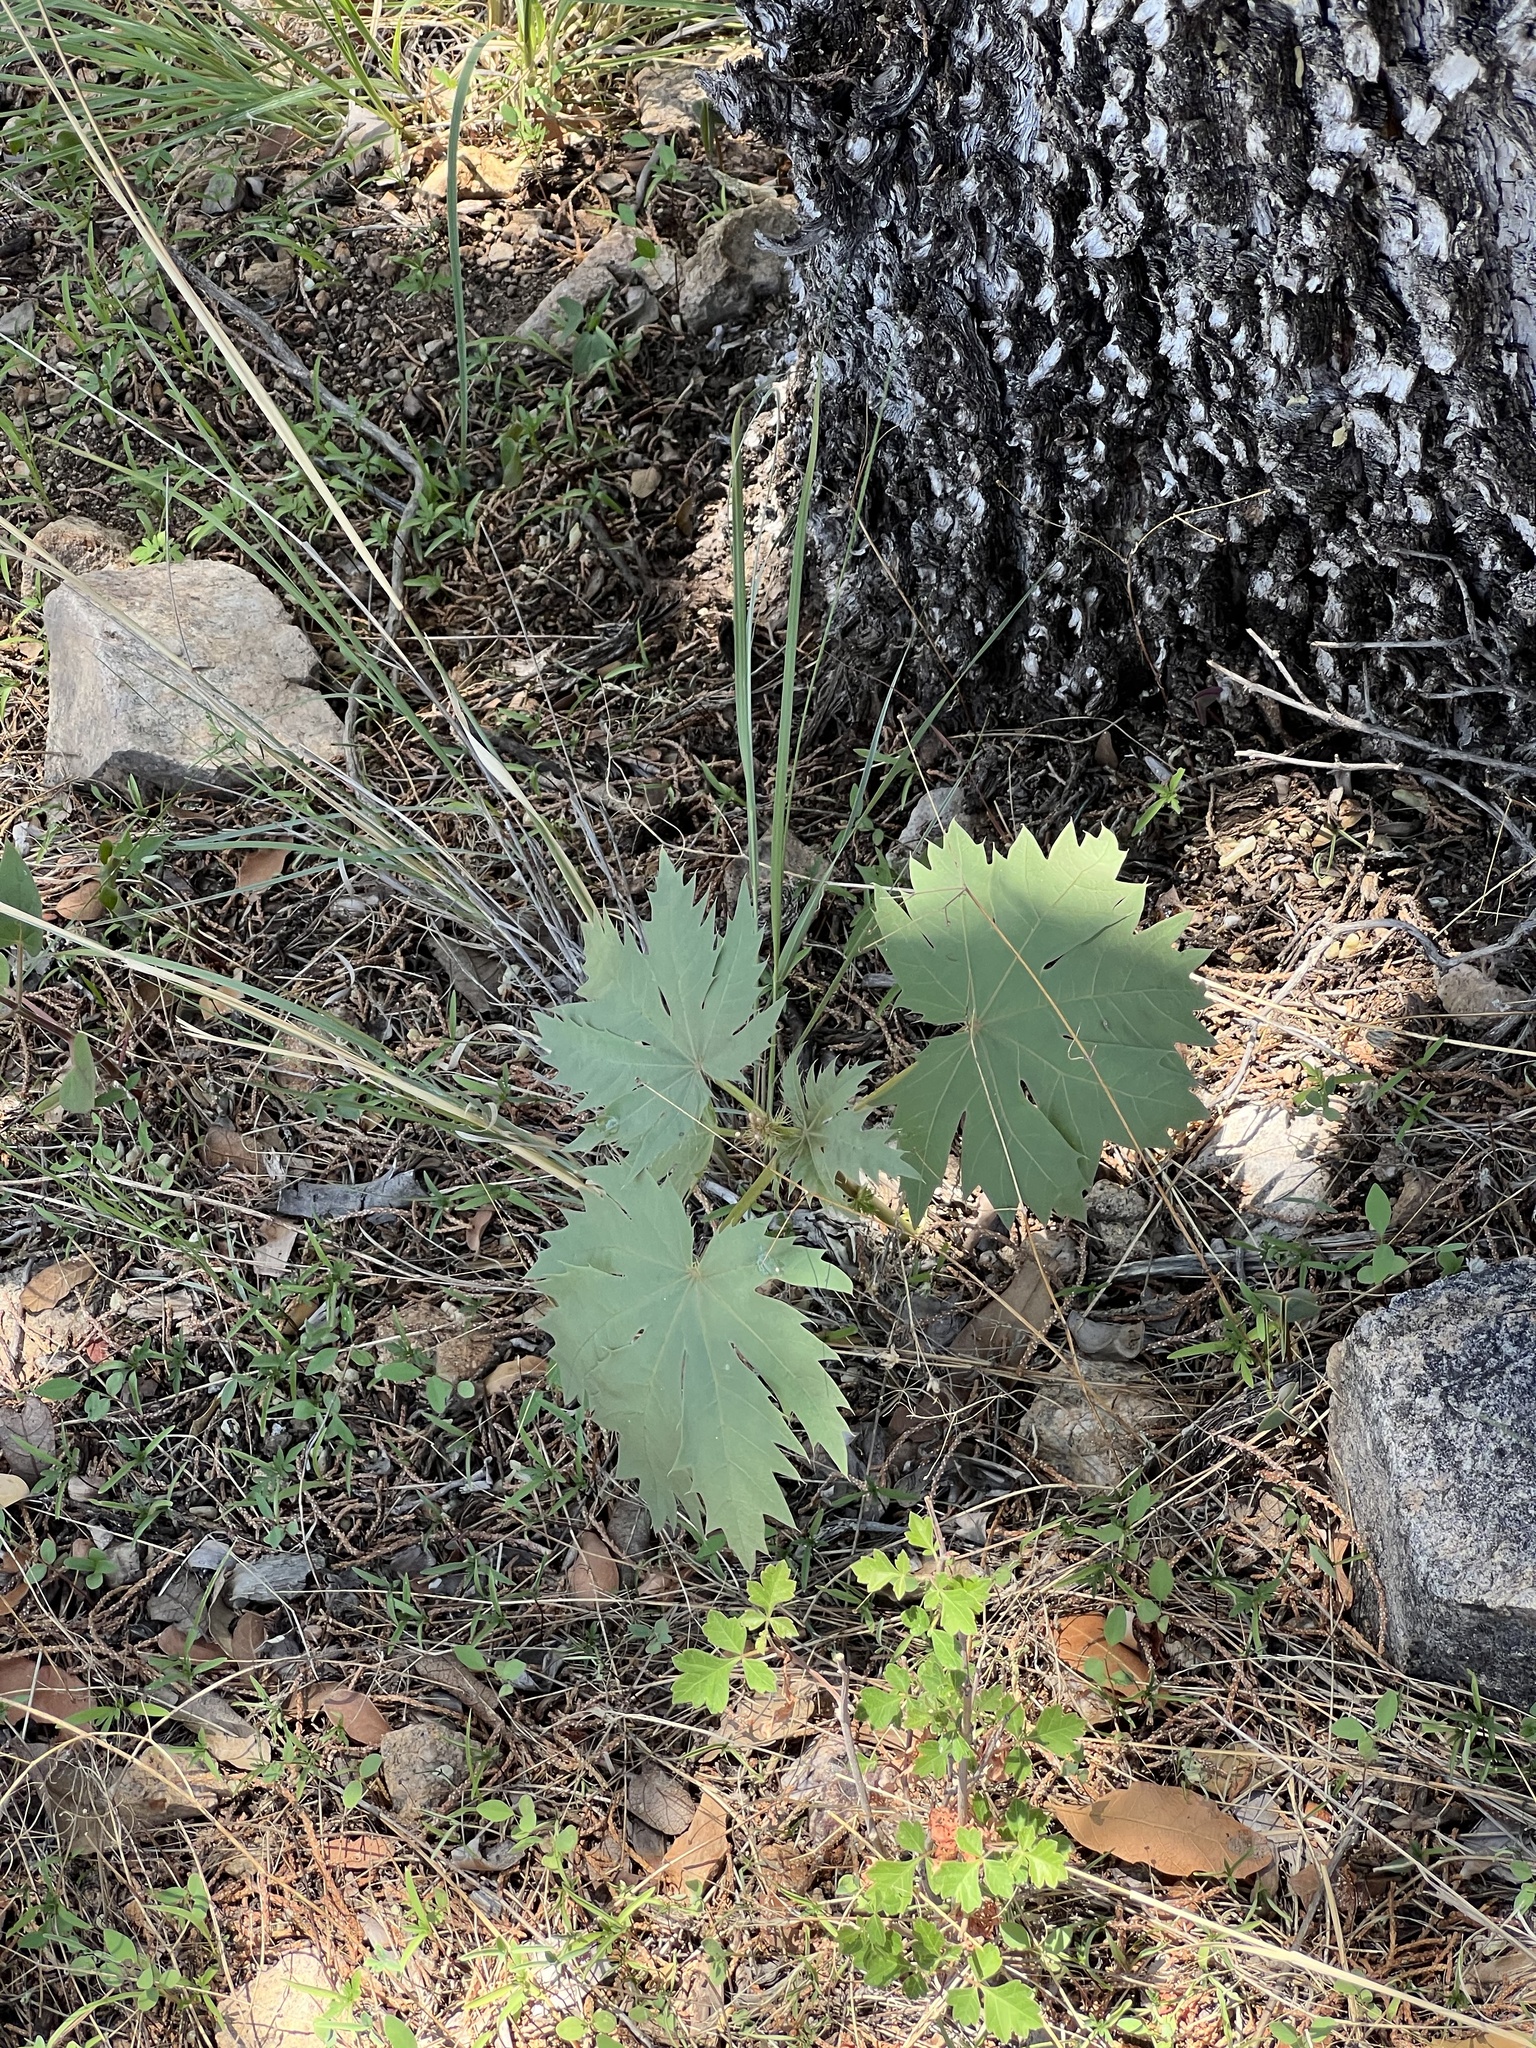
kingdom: Plantae
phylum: Tracheophyta
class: Magnoliopsida
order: Malpighiales
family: Euphorbiaceae
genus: Jatropha
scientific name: Jatropha macrorhiza
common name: Ragged nettlespurge
